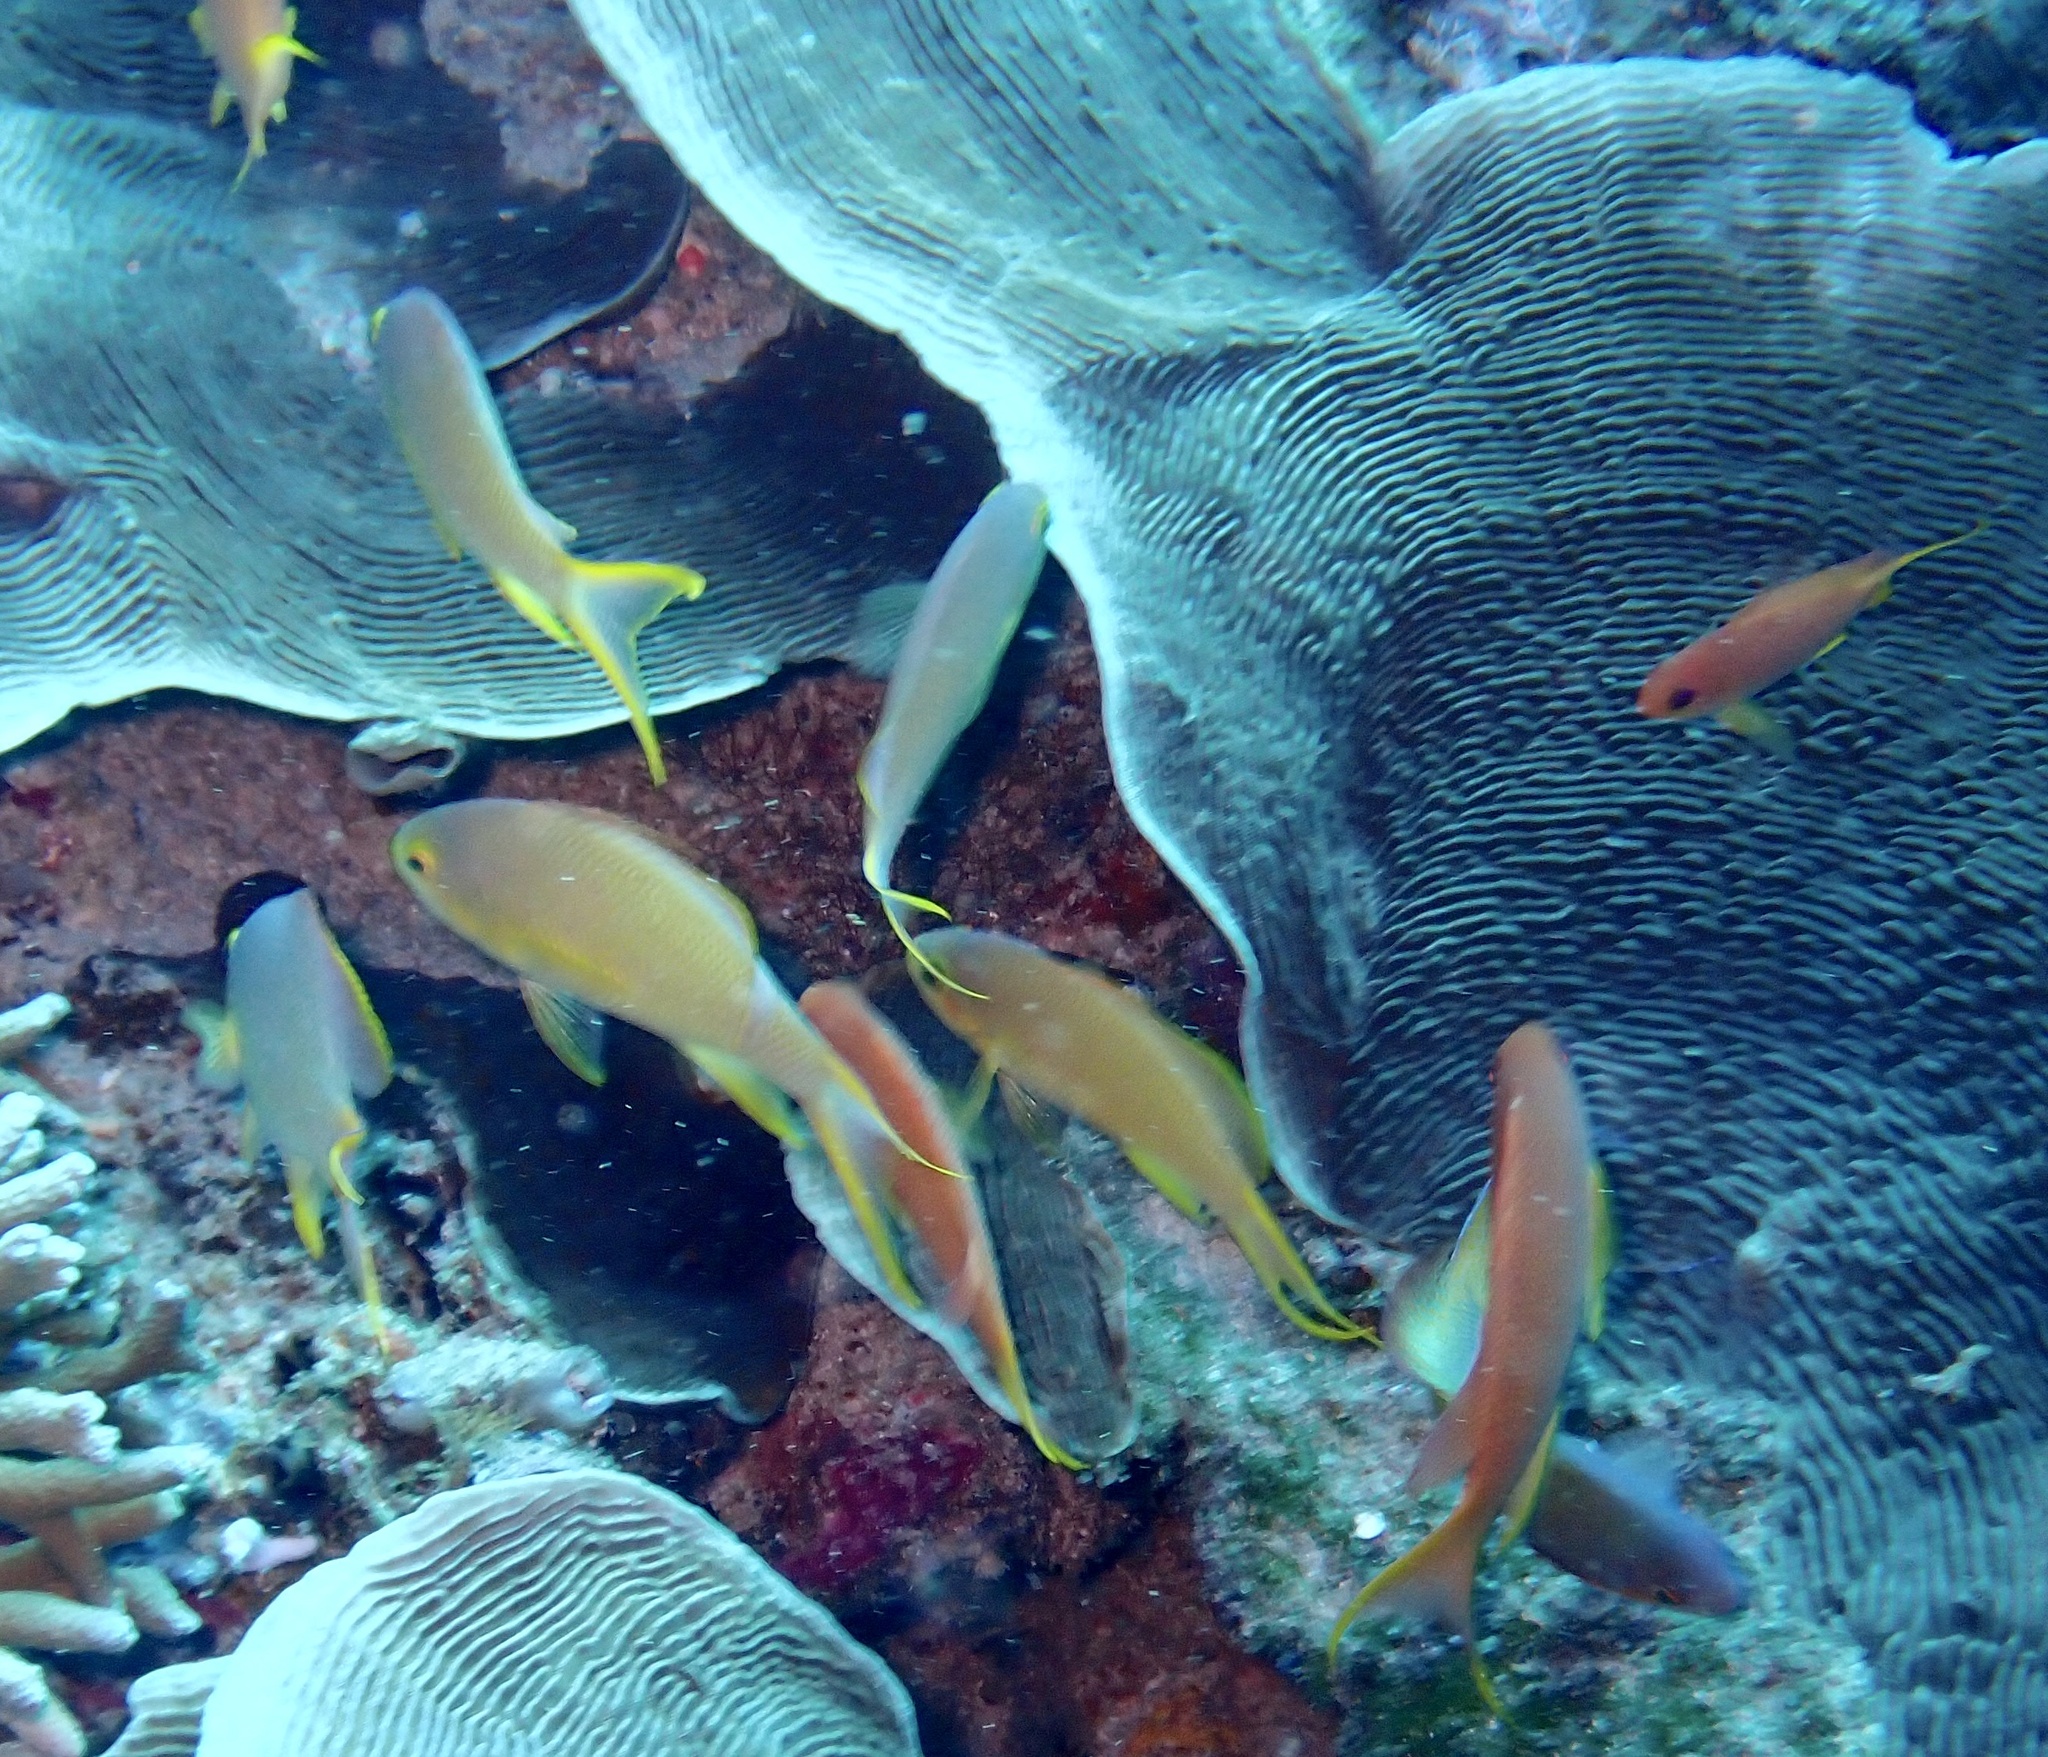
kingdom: Animalia
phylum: Chordata
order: Perciformes
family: Serranidae
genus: Pseudanthias
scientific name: Pseudanthias huchtii
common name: Pacific basslet
